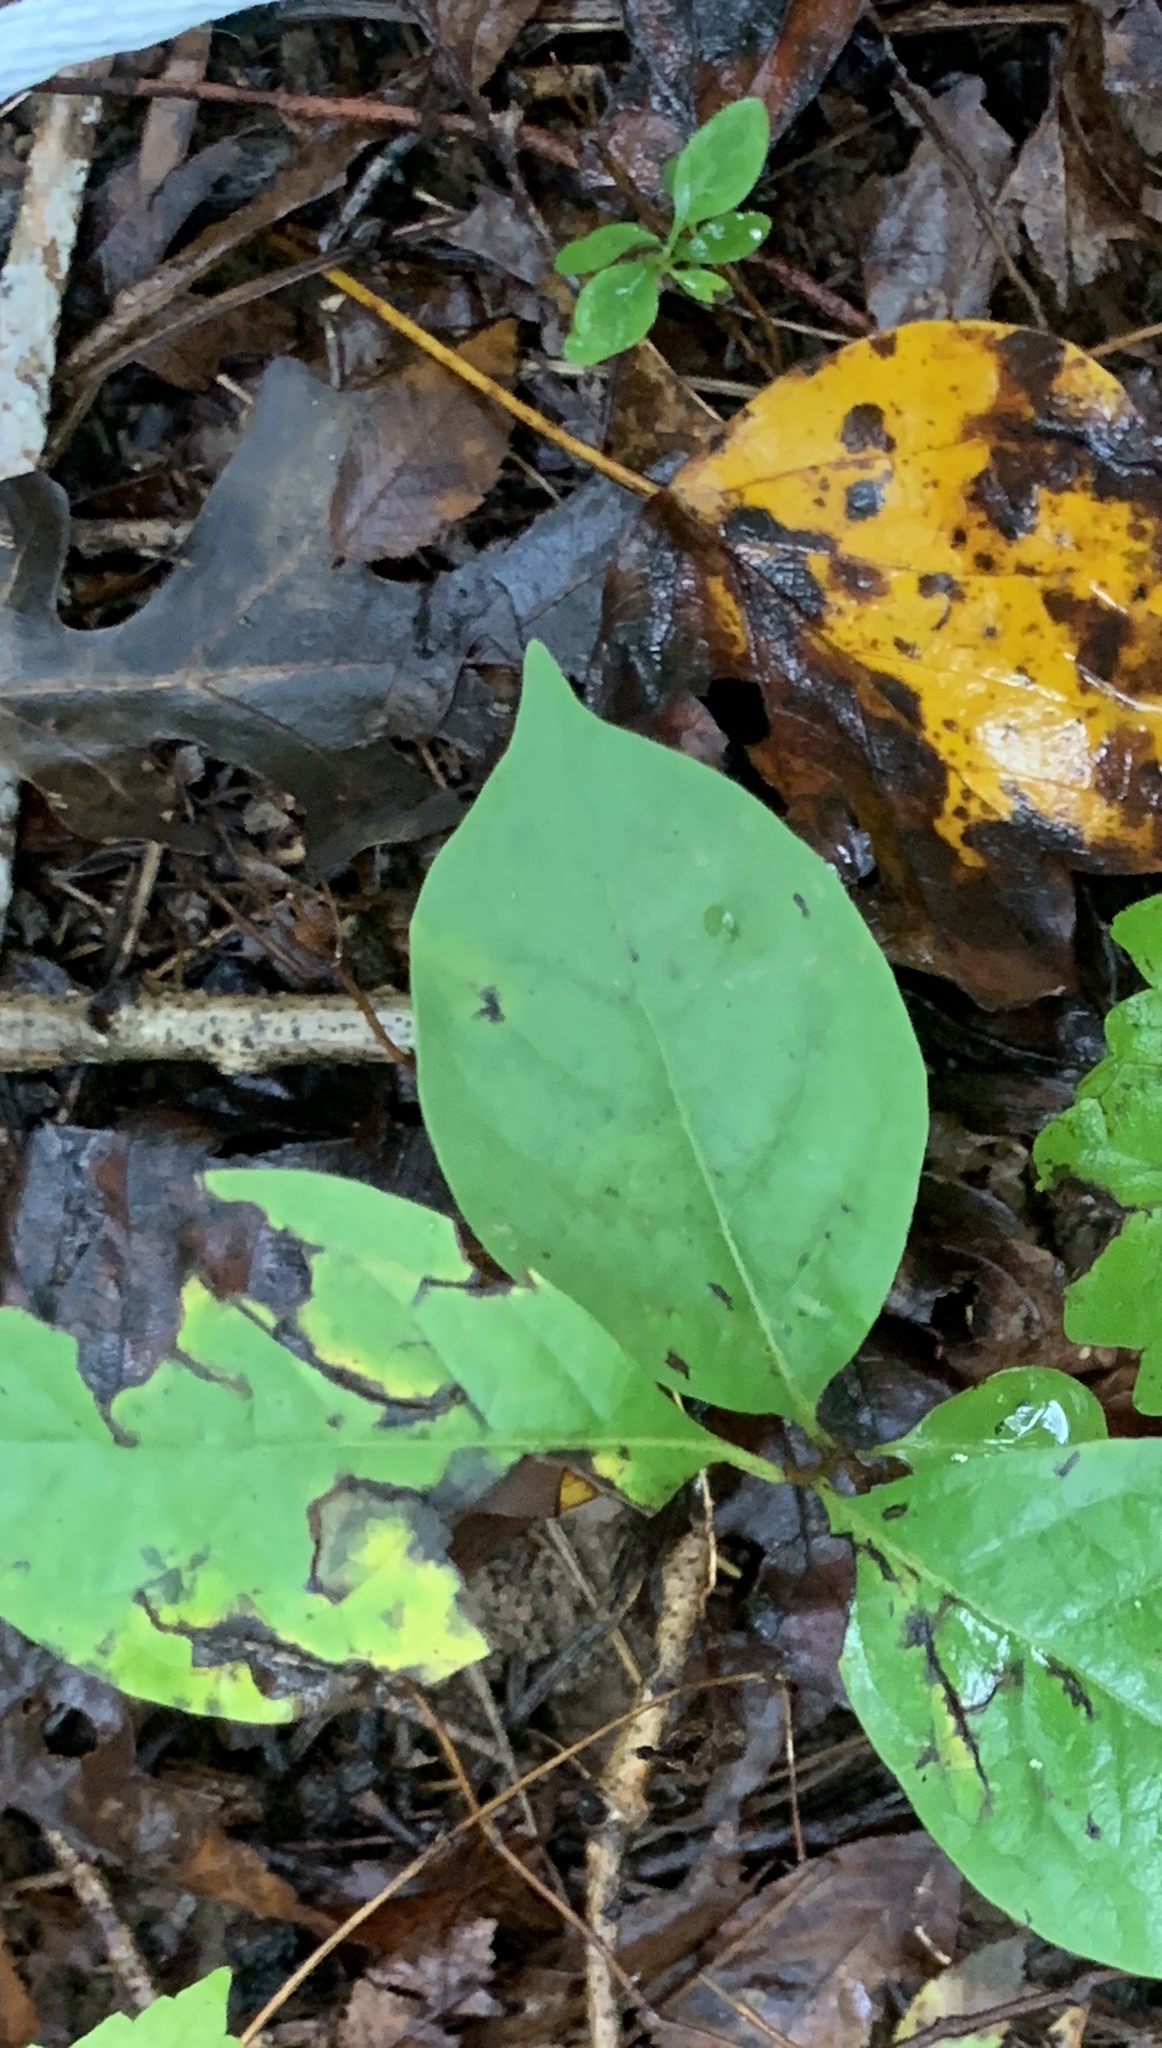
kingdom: Plantae
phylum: Tracheophyta
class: Magnoliopsida
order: Caryophyllales
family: Polygonaceae
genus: Persicaria
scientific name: Persicaria virginiana
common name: Jumpseed
